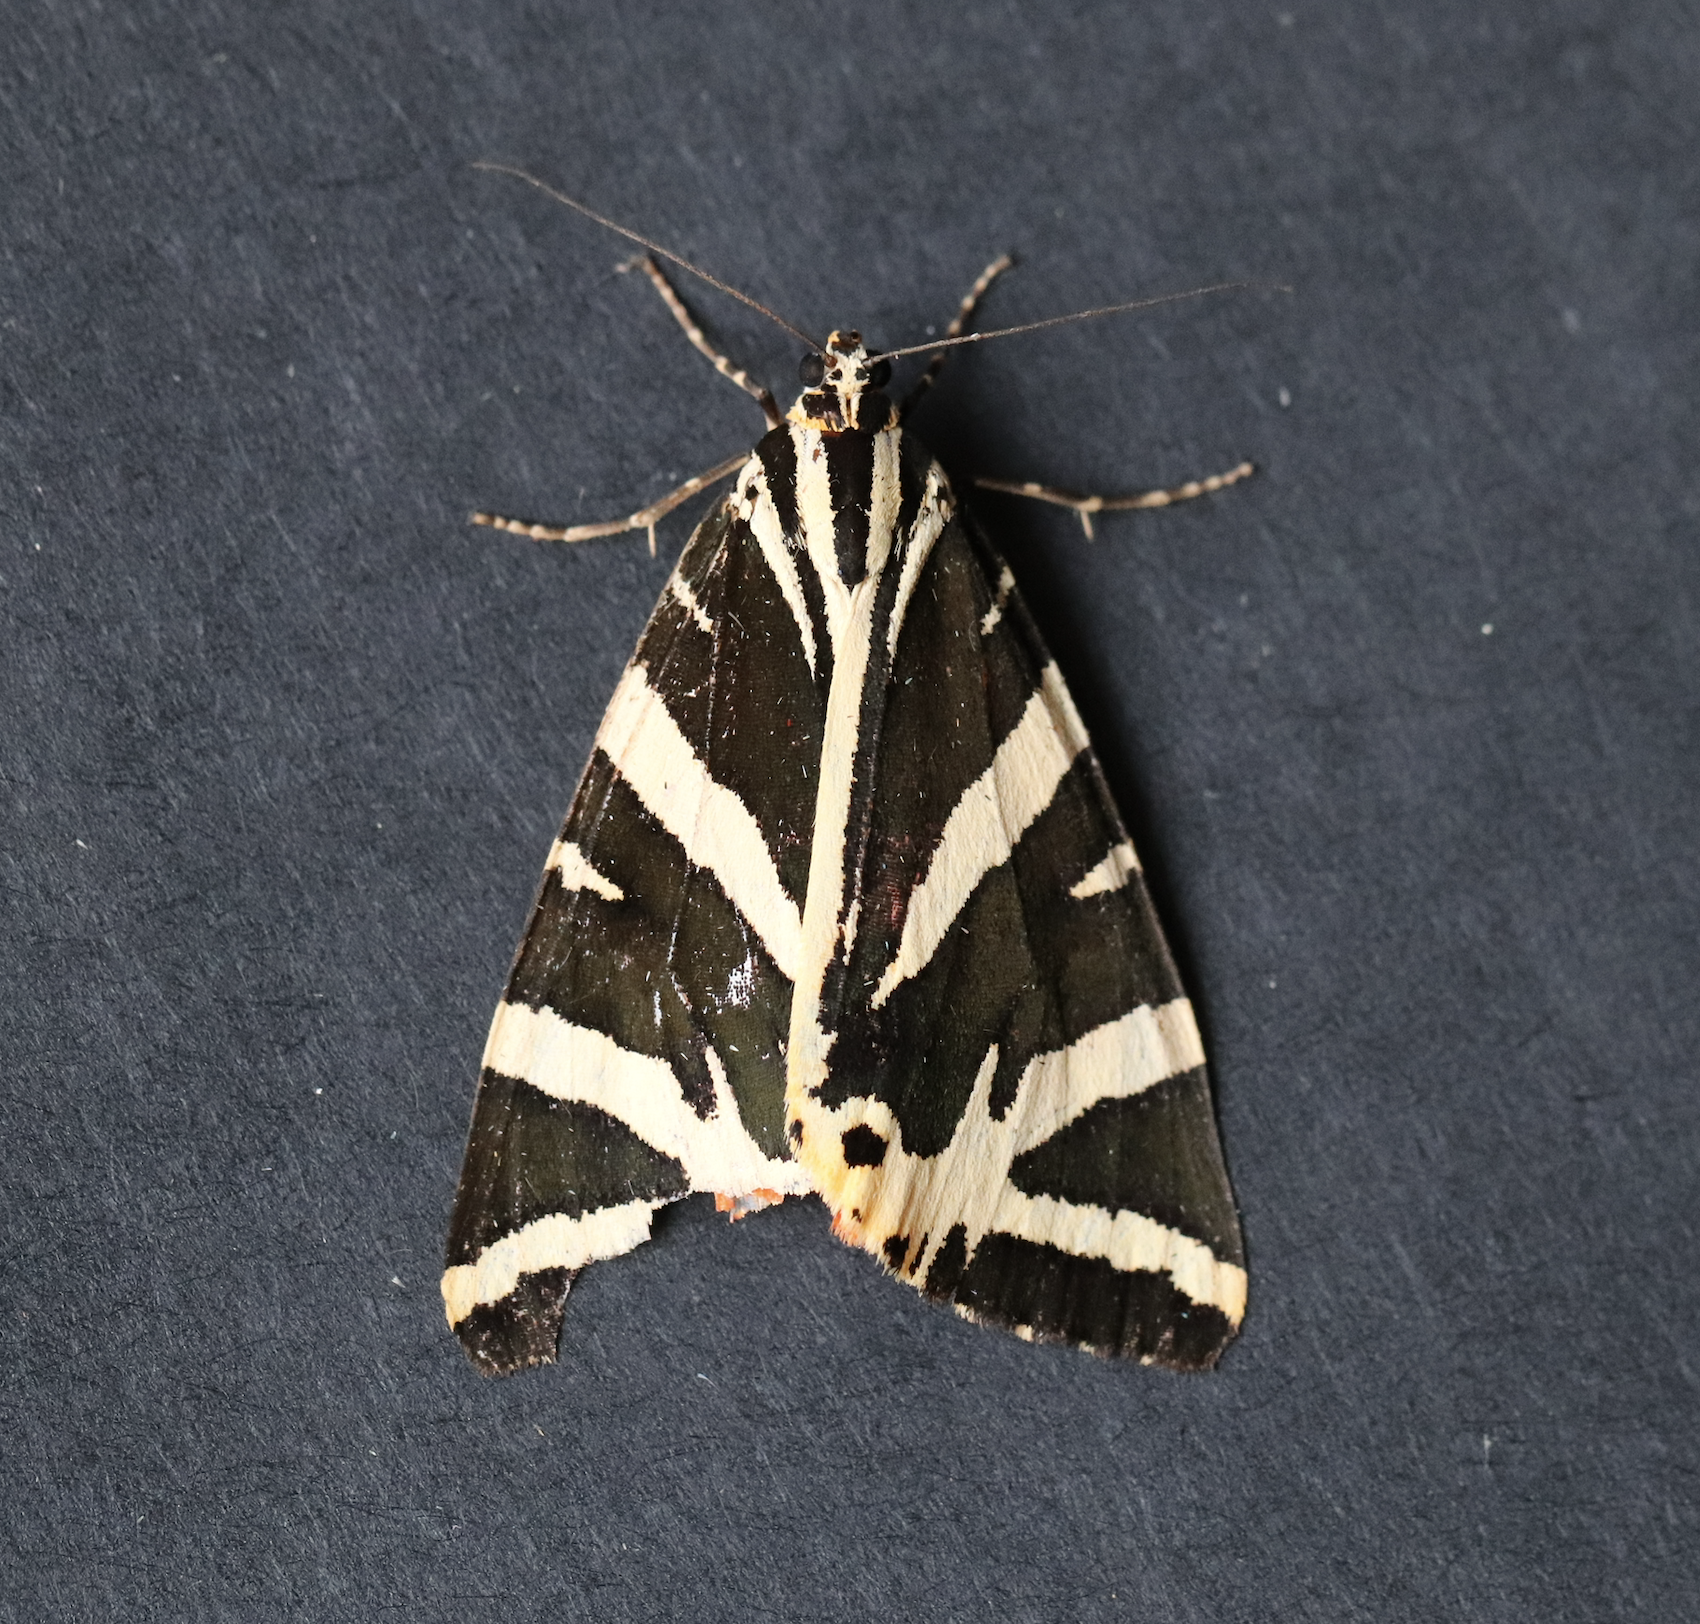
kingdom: Animalia
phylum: Arthropoda
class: Insecta
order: Lepidoptera
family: Erebidae
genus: Euplagia
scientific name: Euplagia quadripunctaria
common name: Jersey tiger
